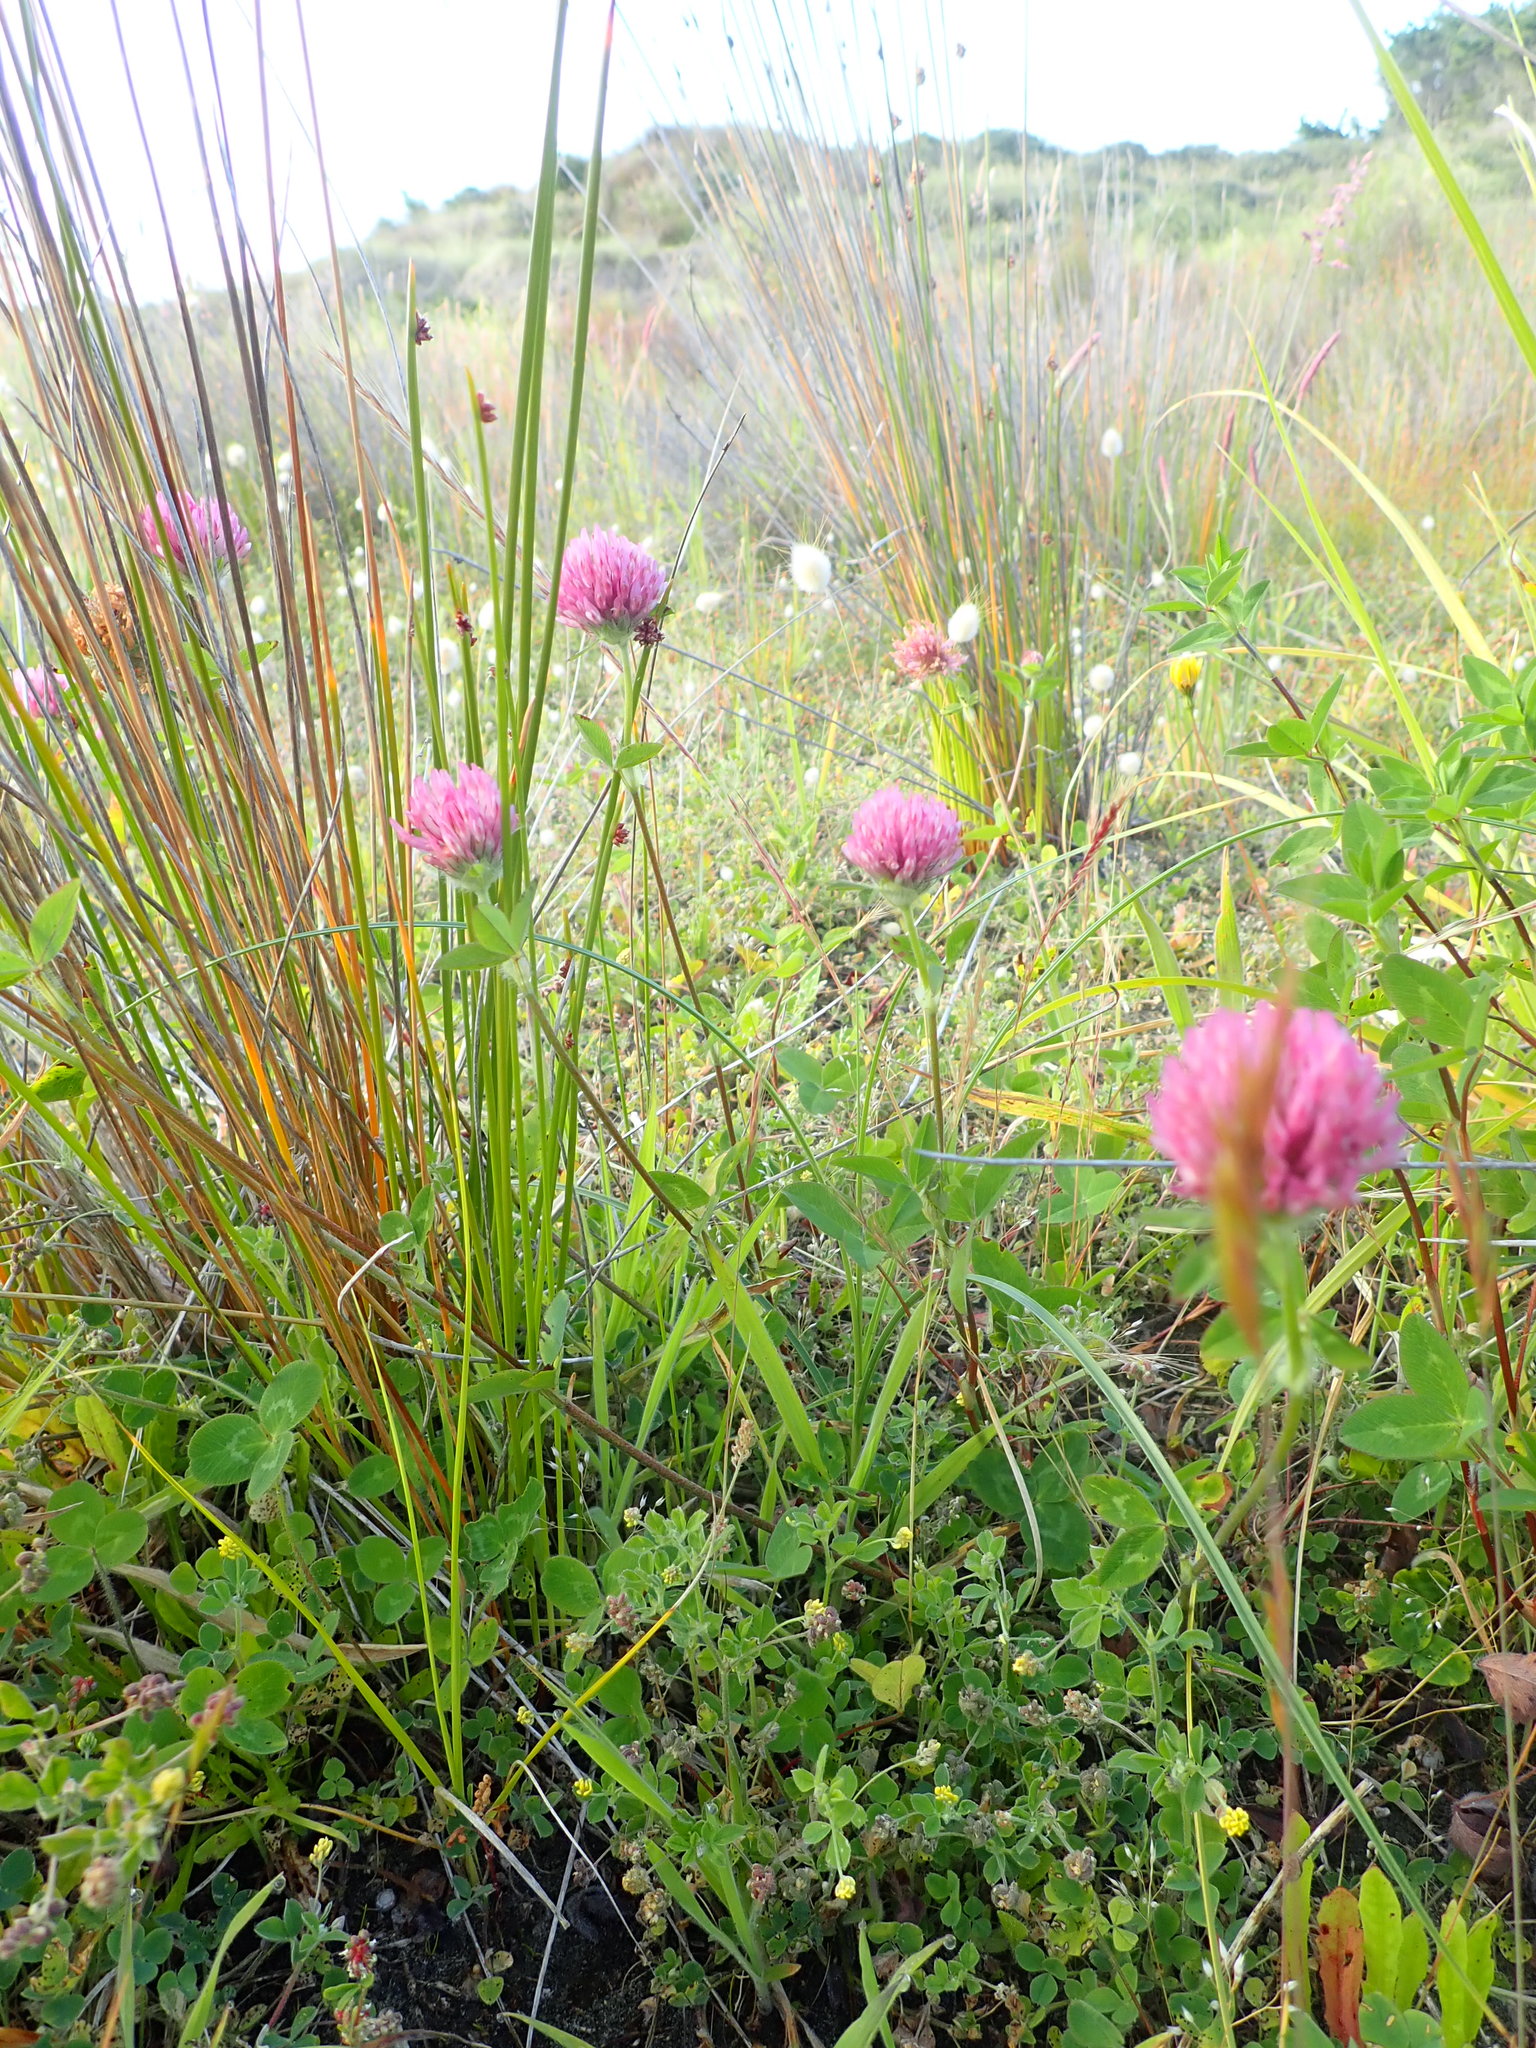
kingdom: Plantae
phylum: Tracheophyta
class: Magnoliopsida
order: Fabales
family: Fabaceae
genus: Trifolium
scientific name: Trifolium pratense
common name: Red clover
